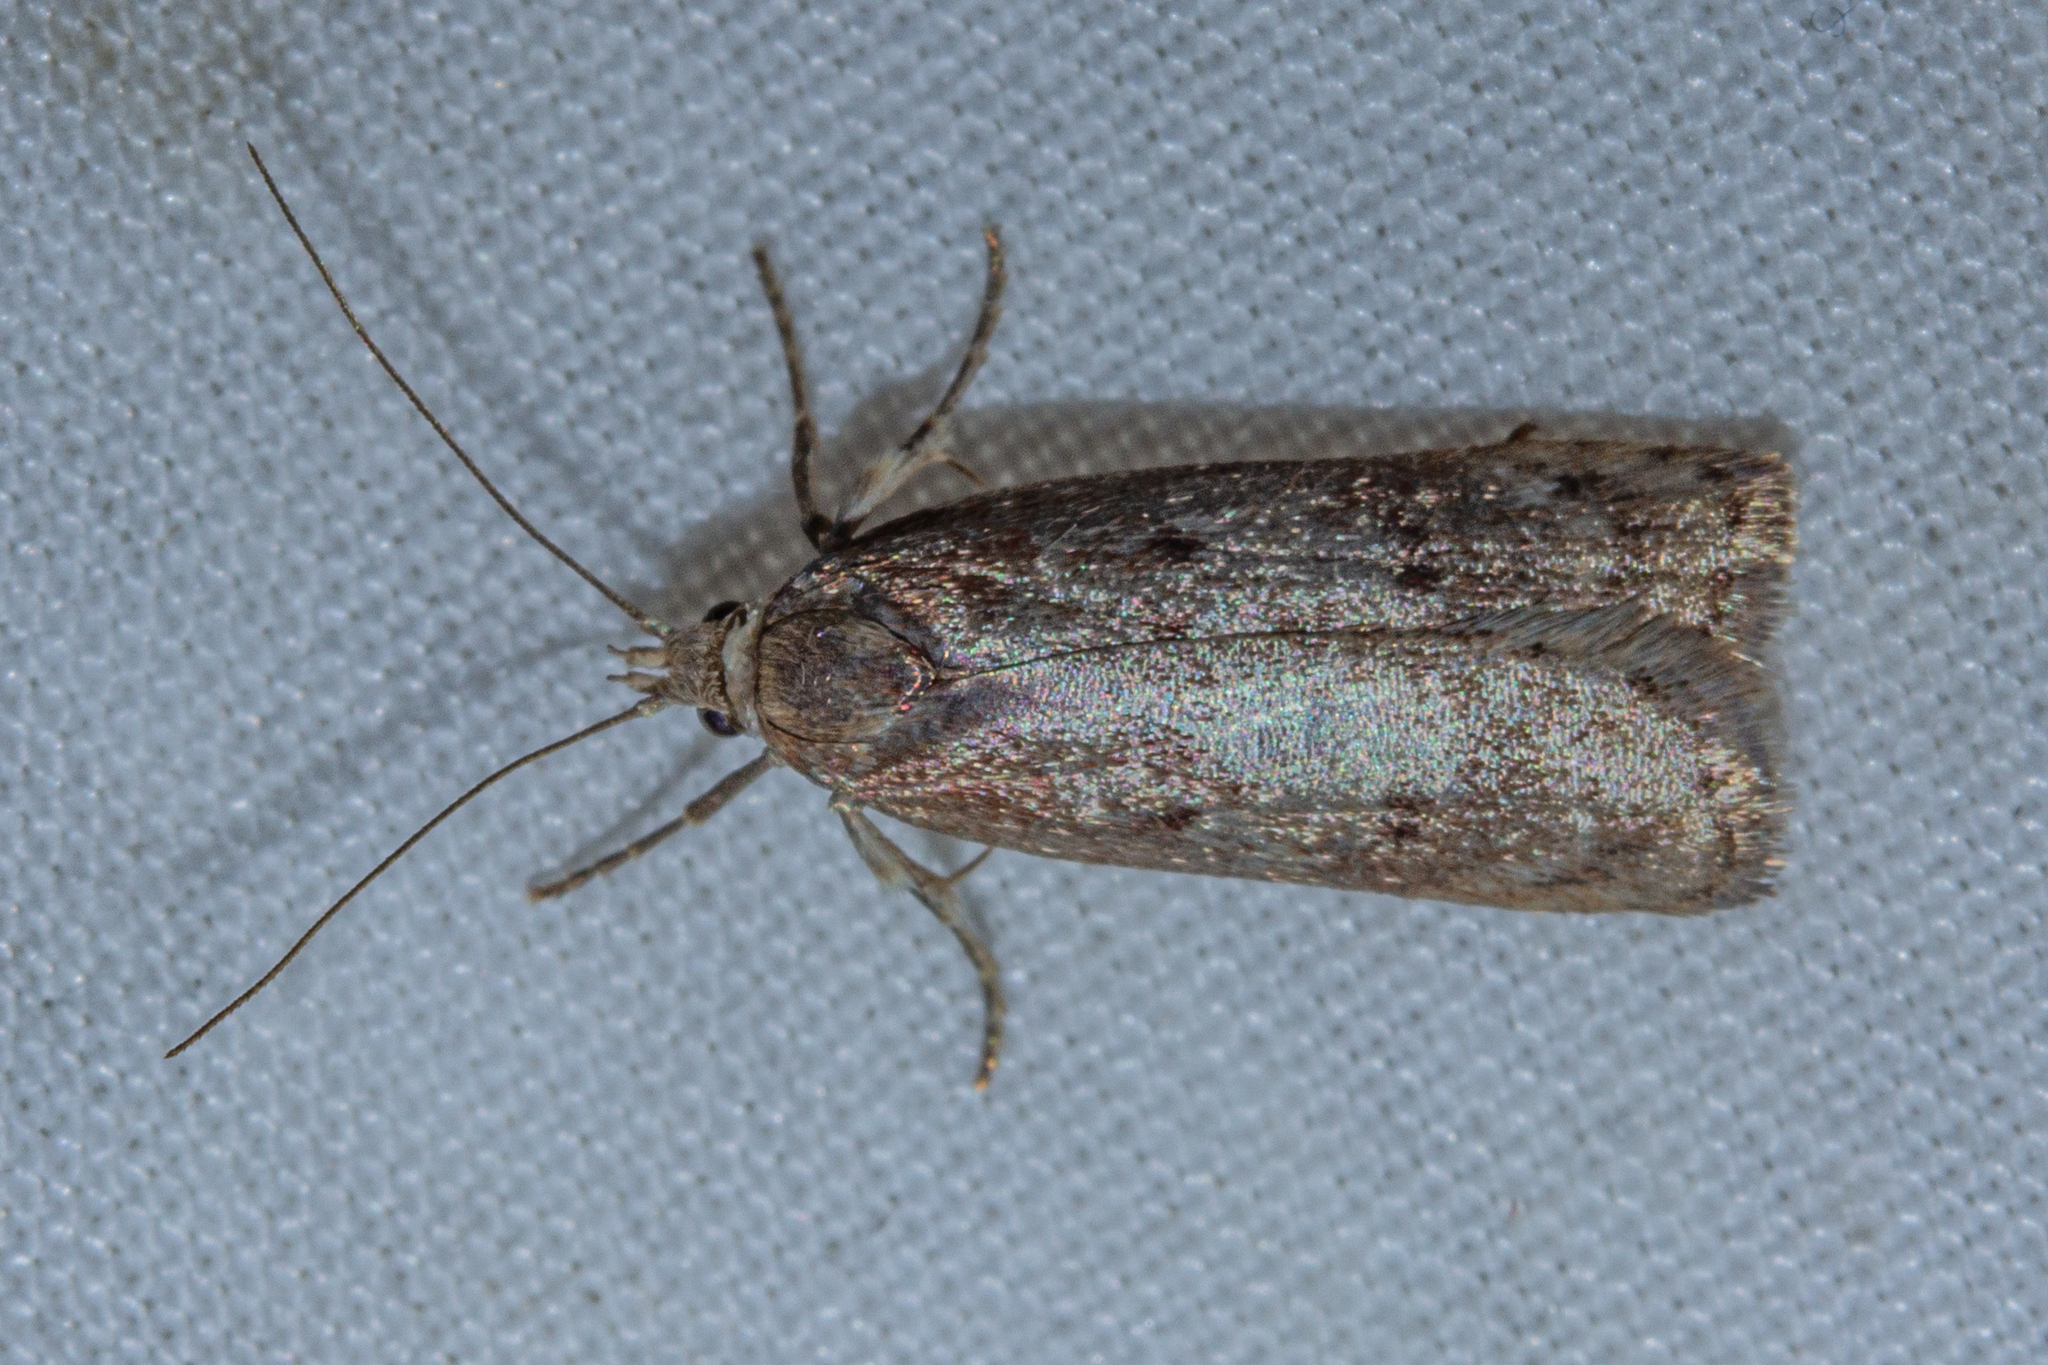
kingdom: Animalia
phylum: Arthropoda
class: Insecta
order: Lepidoptera
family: Depressariidae
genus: Phaeosaces
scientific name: Phaeosaces apocrypta
